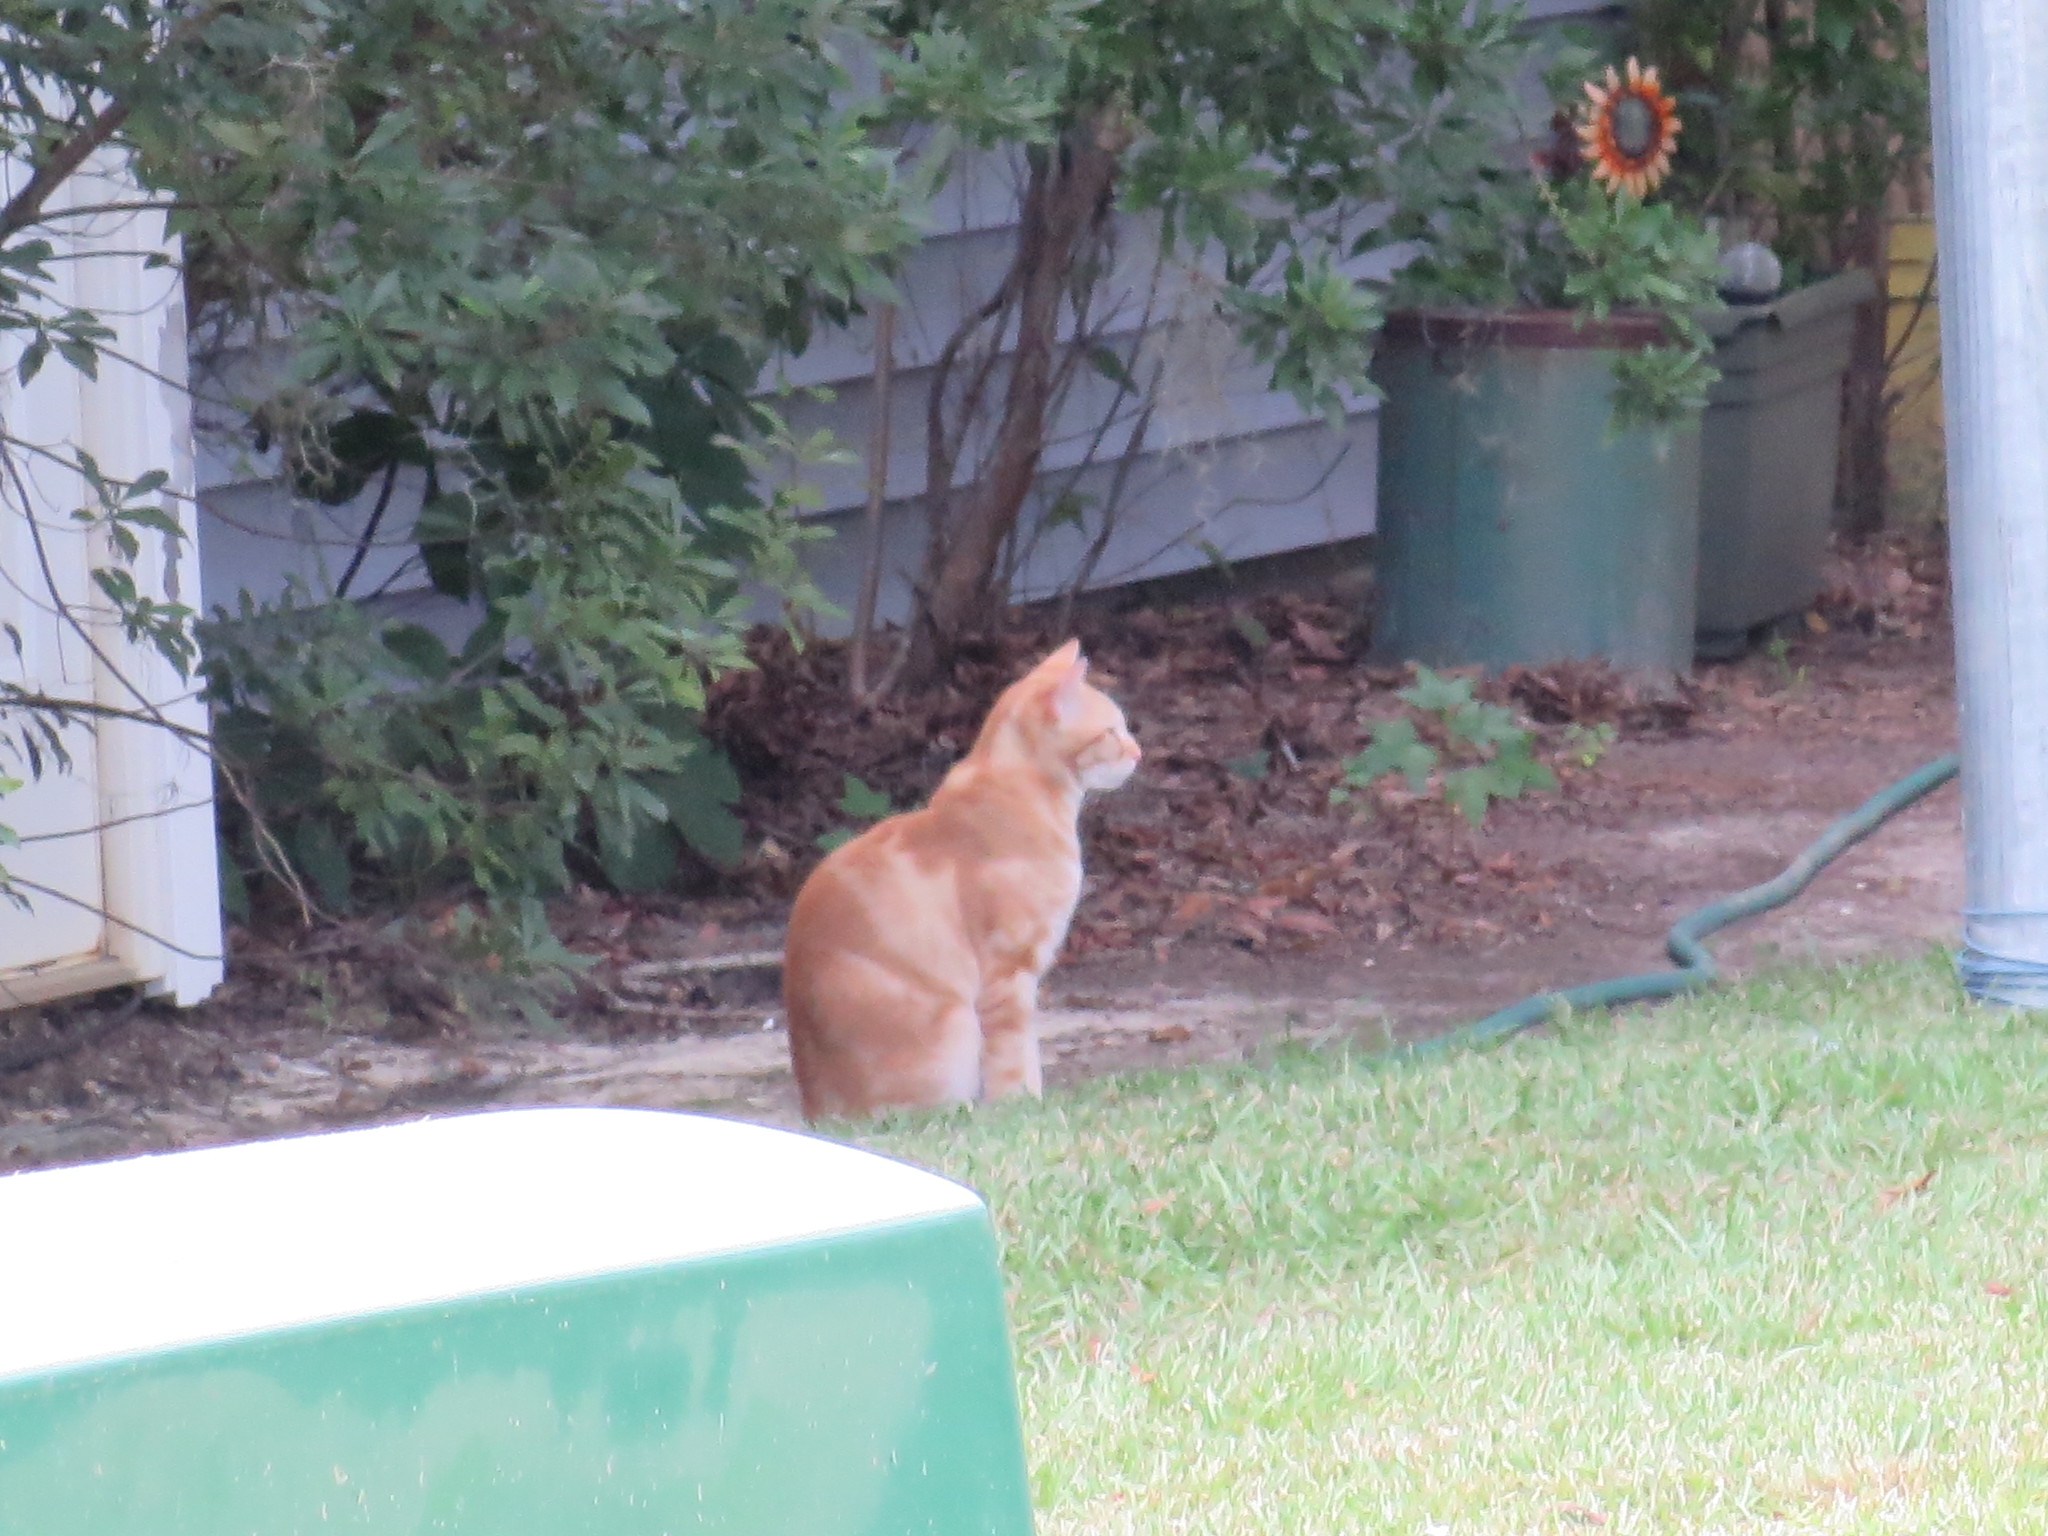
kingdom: Animalia
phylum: Chordata
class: Mammalia
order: Carnivora
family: Felidae
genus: Felis
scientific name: Felis catus
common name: Domestic cat
